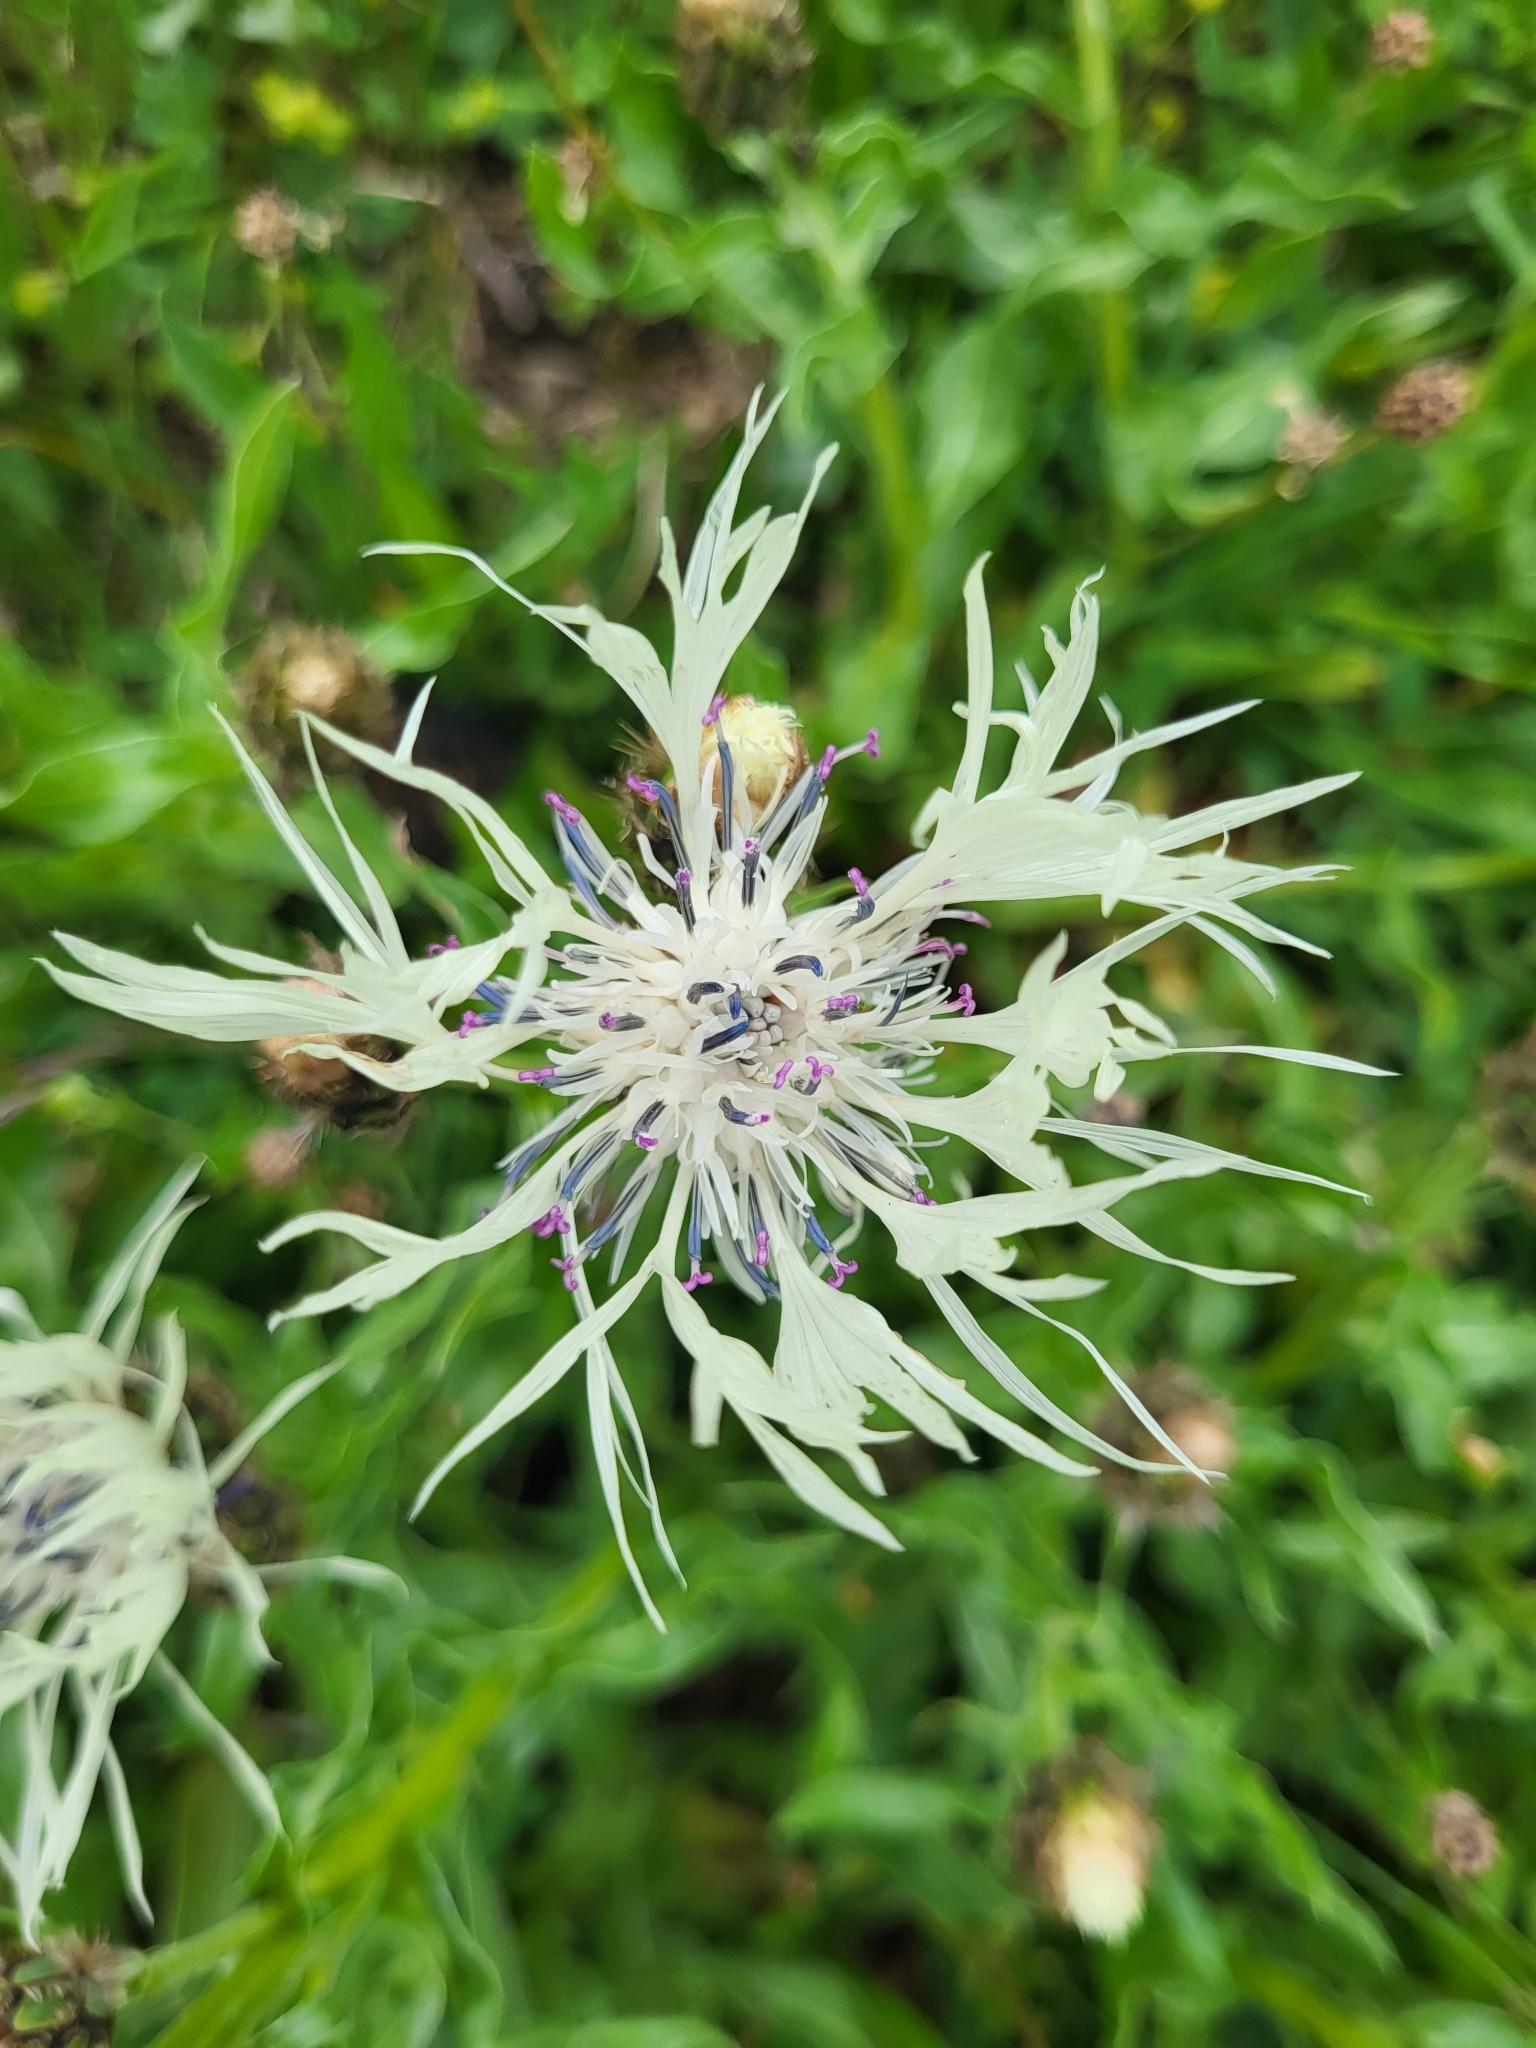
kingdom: Plantae
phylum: Tracheophyta
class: Magnoliopsida
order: Asterales
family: Asteraceae
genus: Centaurea
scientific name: Centaurea cheiranthifolia
